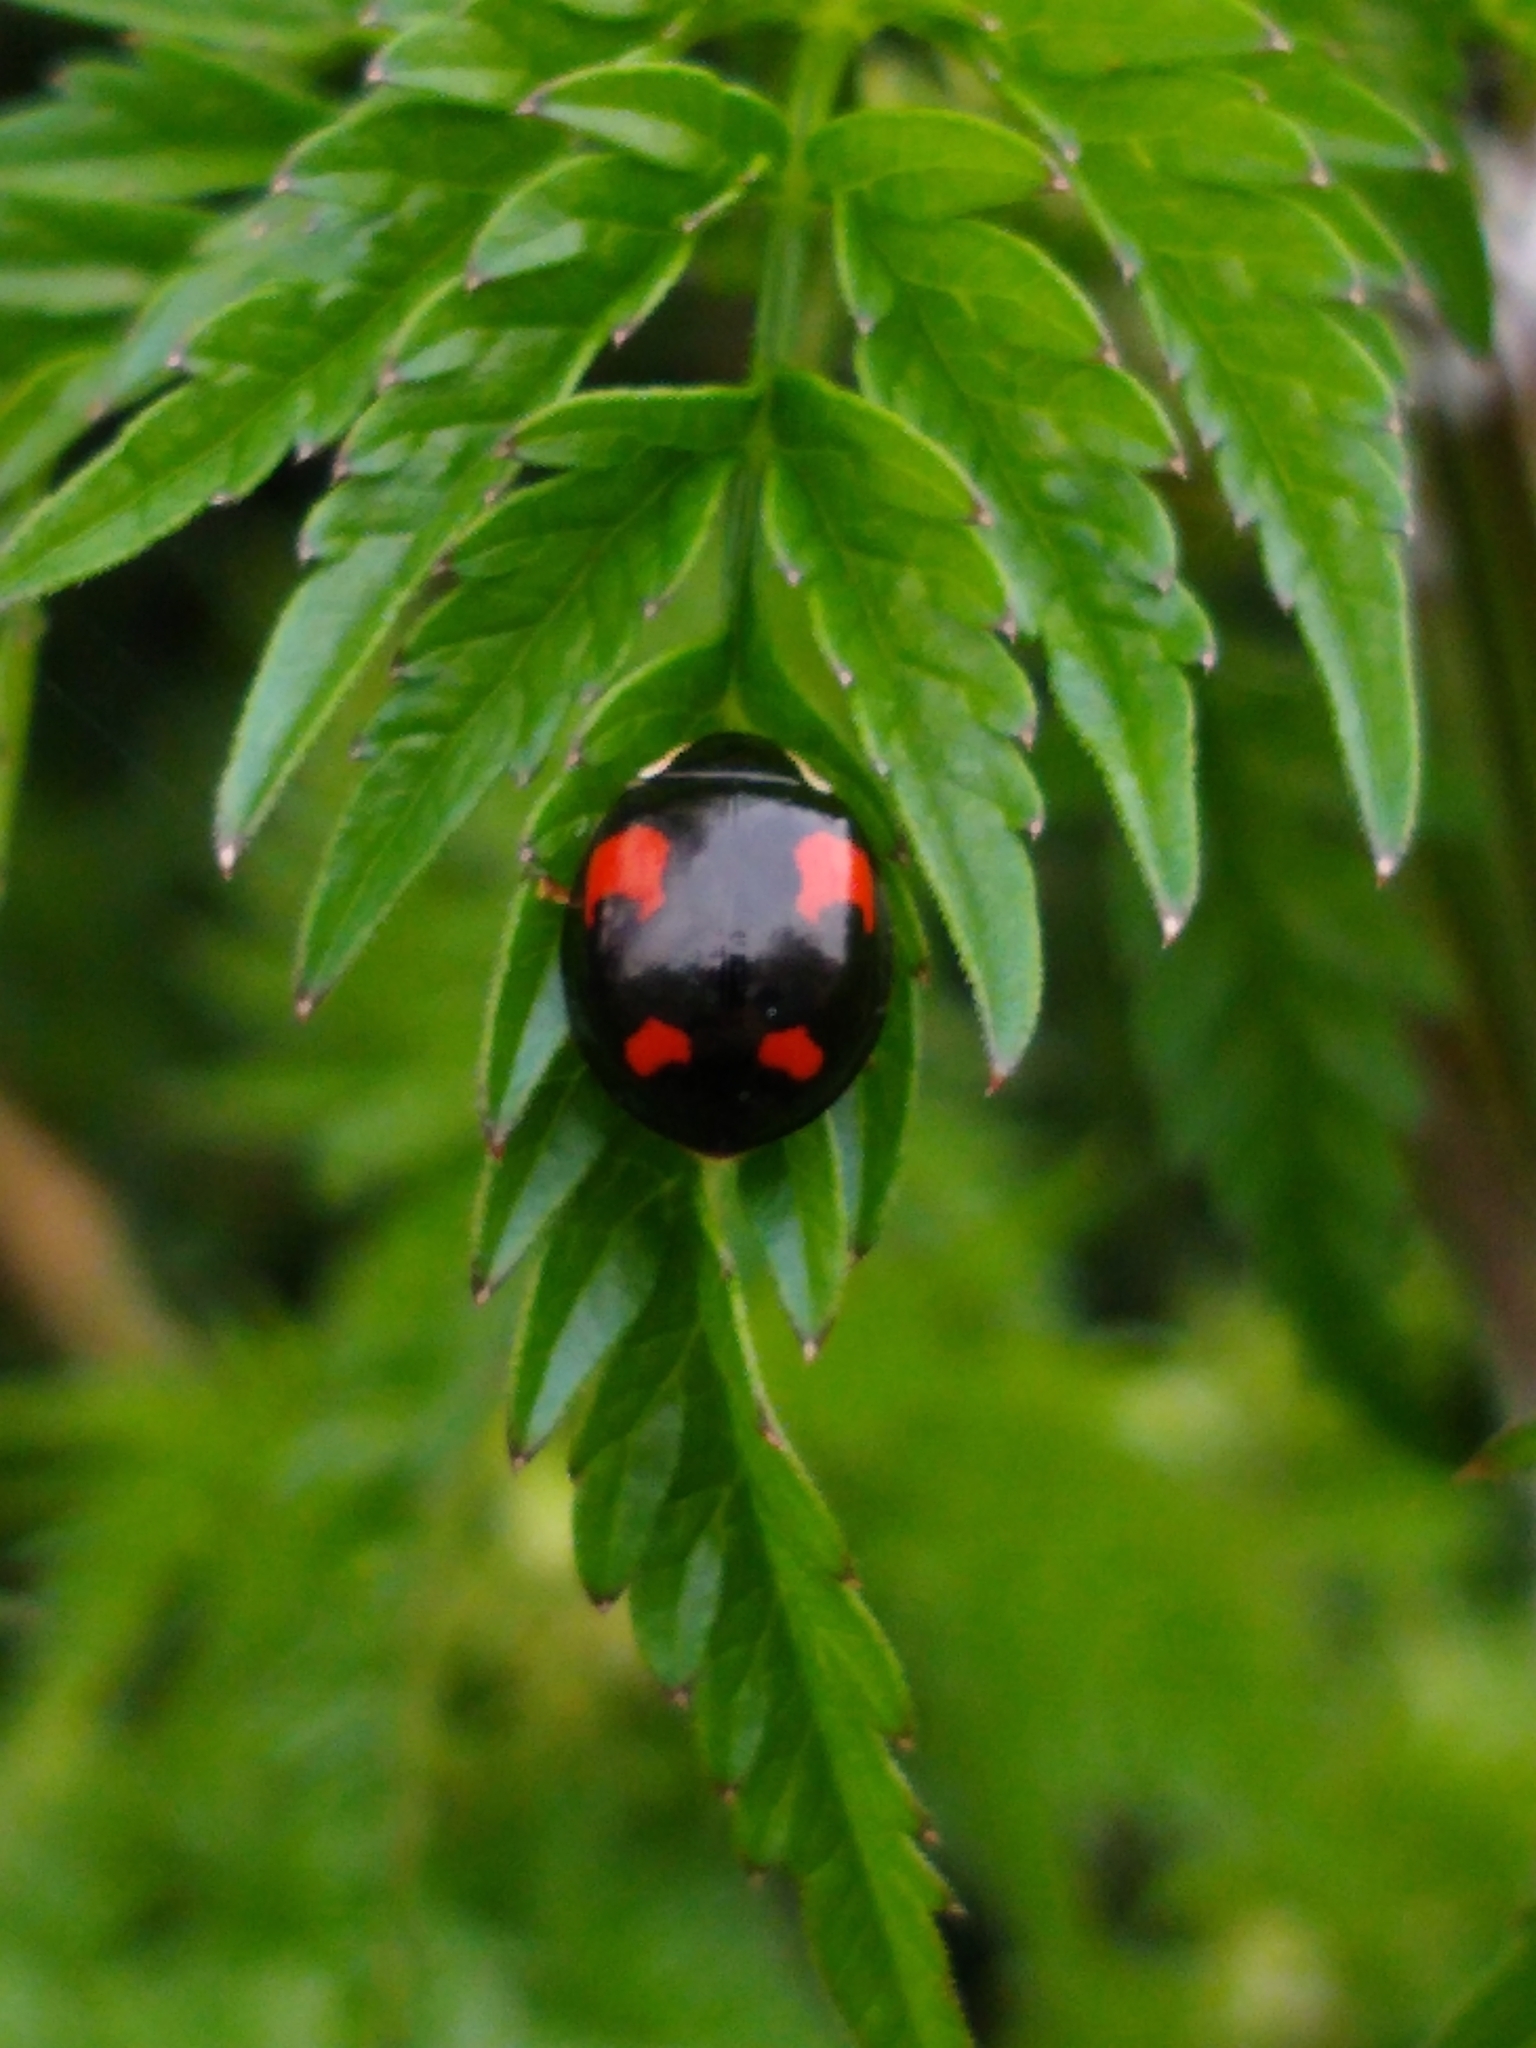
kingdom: Animalia
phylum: Arthropoda
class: Insecta
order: Coleoptera
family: Coccinellidae
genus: Harmonia
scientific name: Harmonia axyridis
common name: Harlequin ladybird
